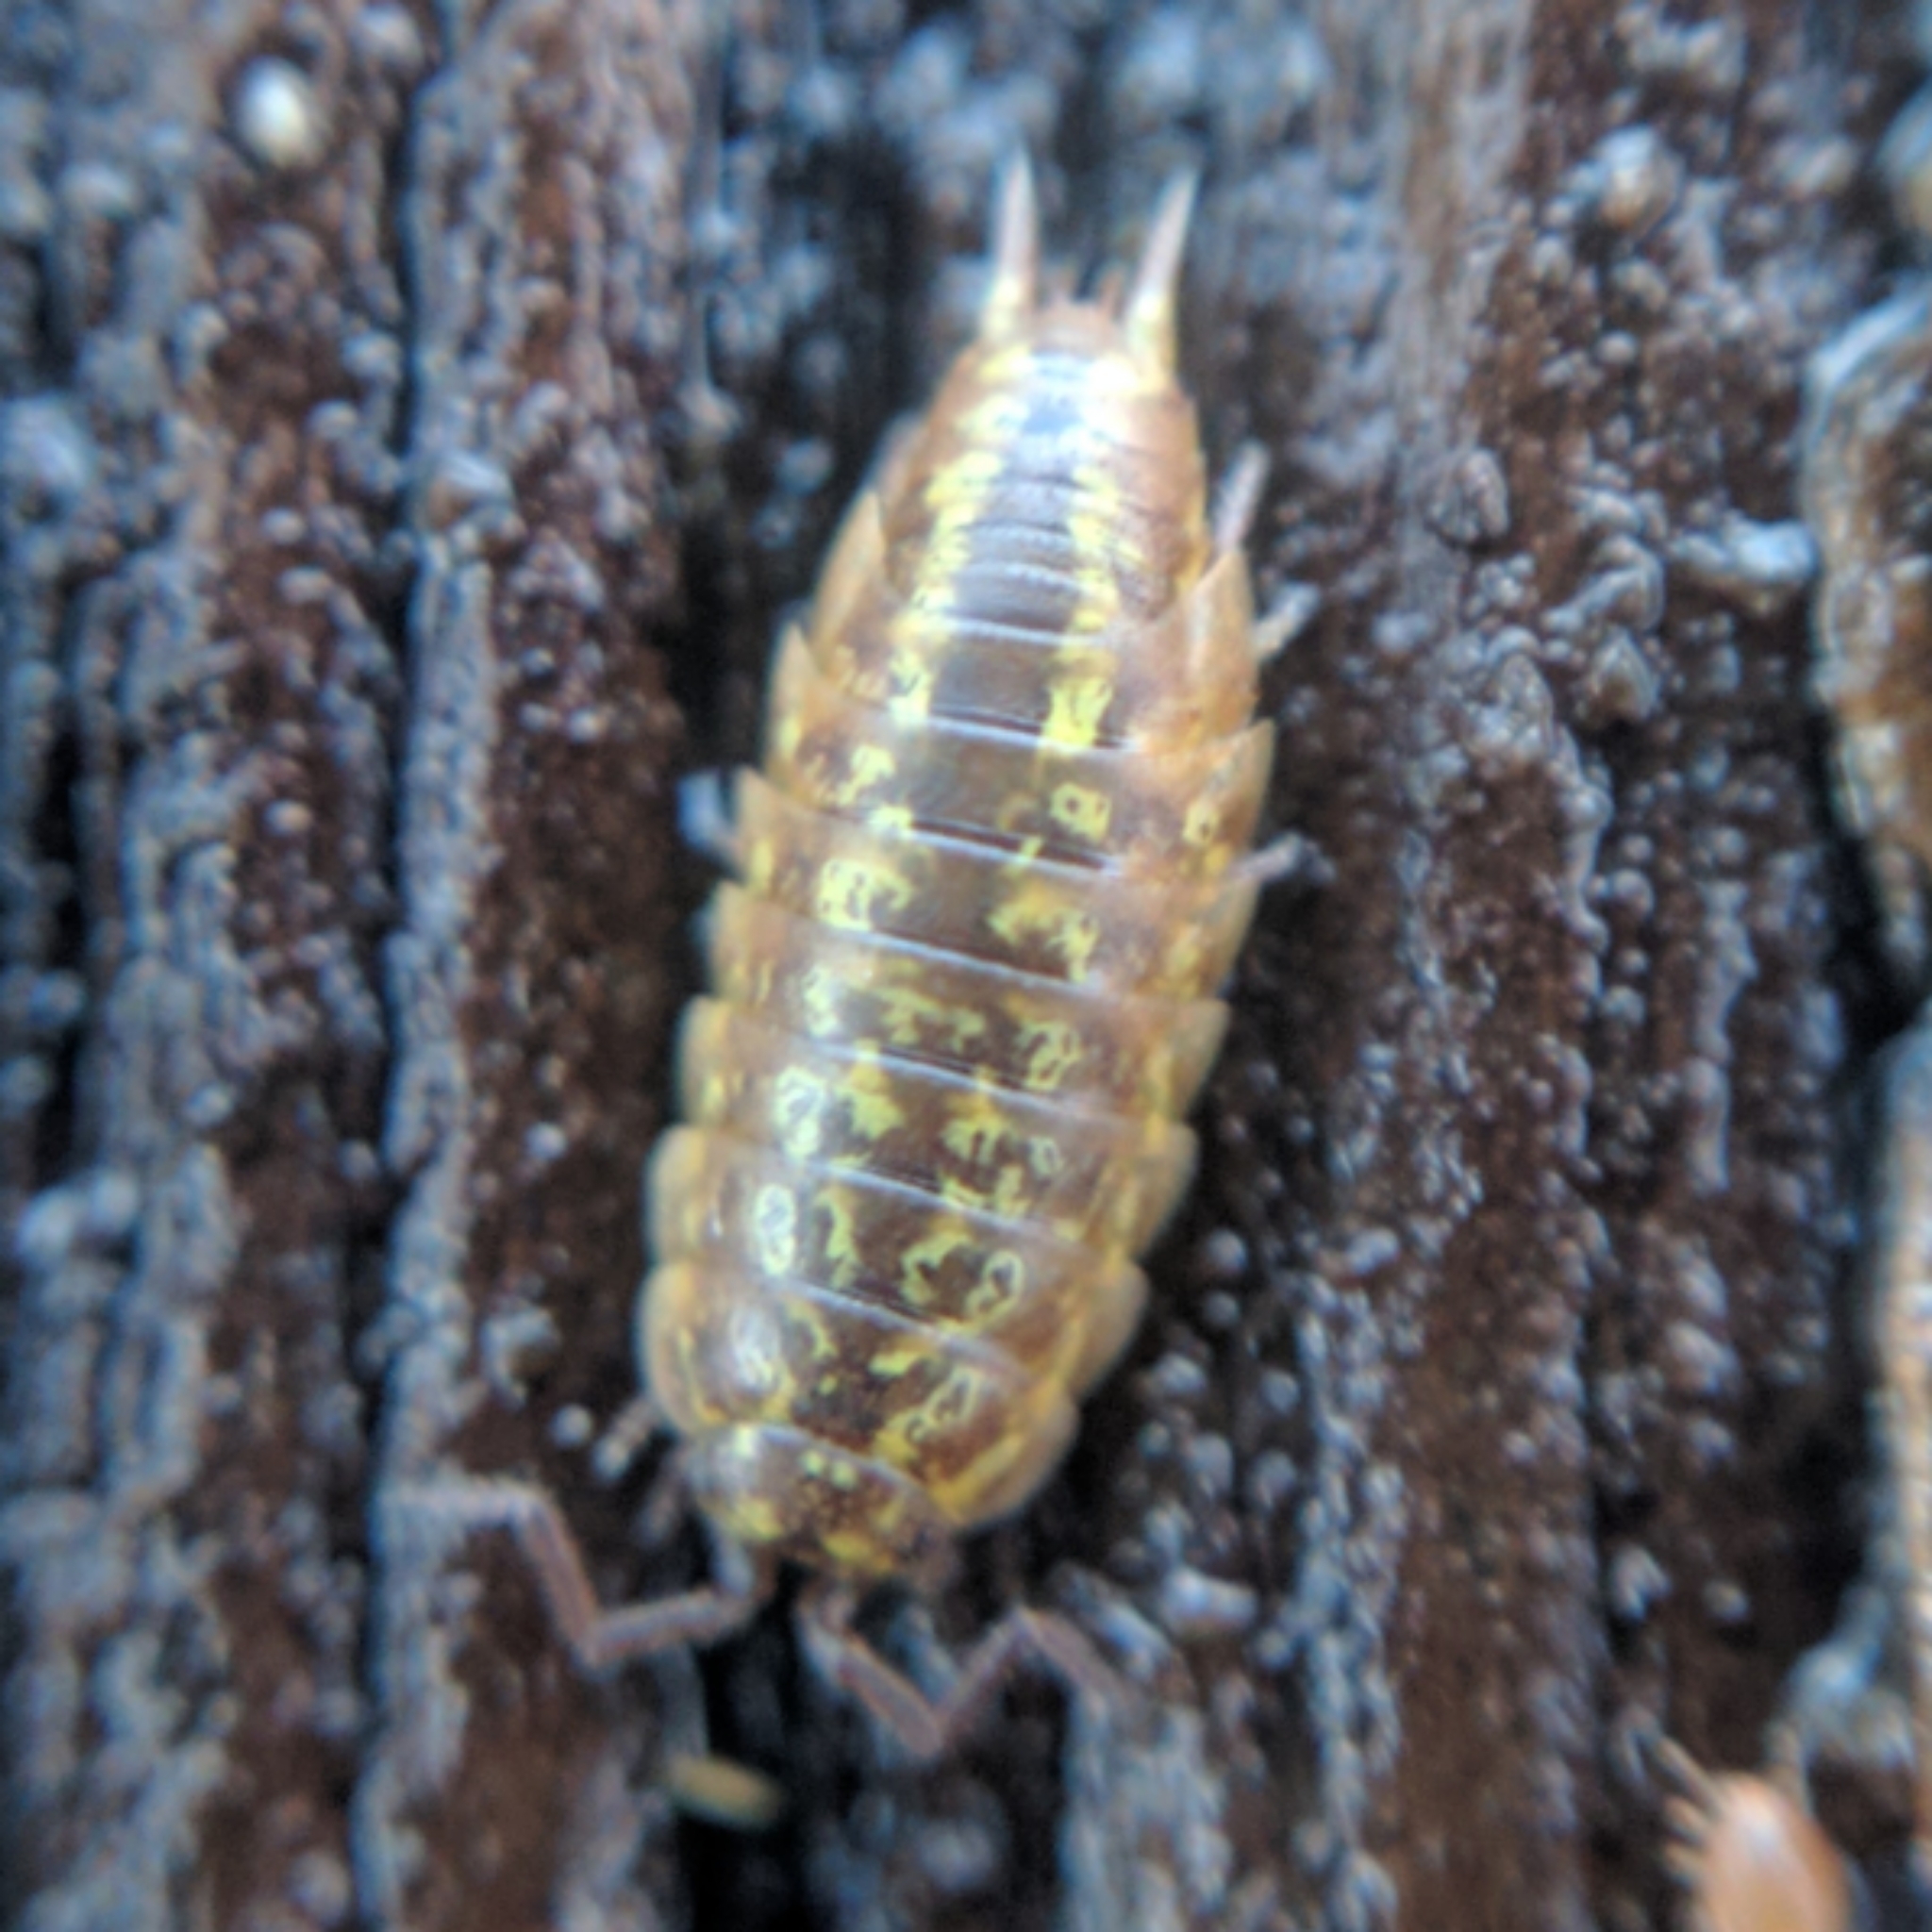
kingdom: Animalia
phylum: Arthropoda
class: Malacostraca
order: Isopoda
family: Halophilosciidae
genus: Littorophiloscia
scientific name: Littorophiloscia vittata
